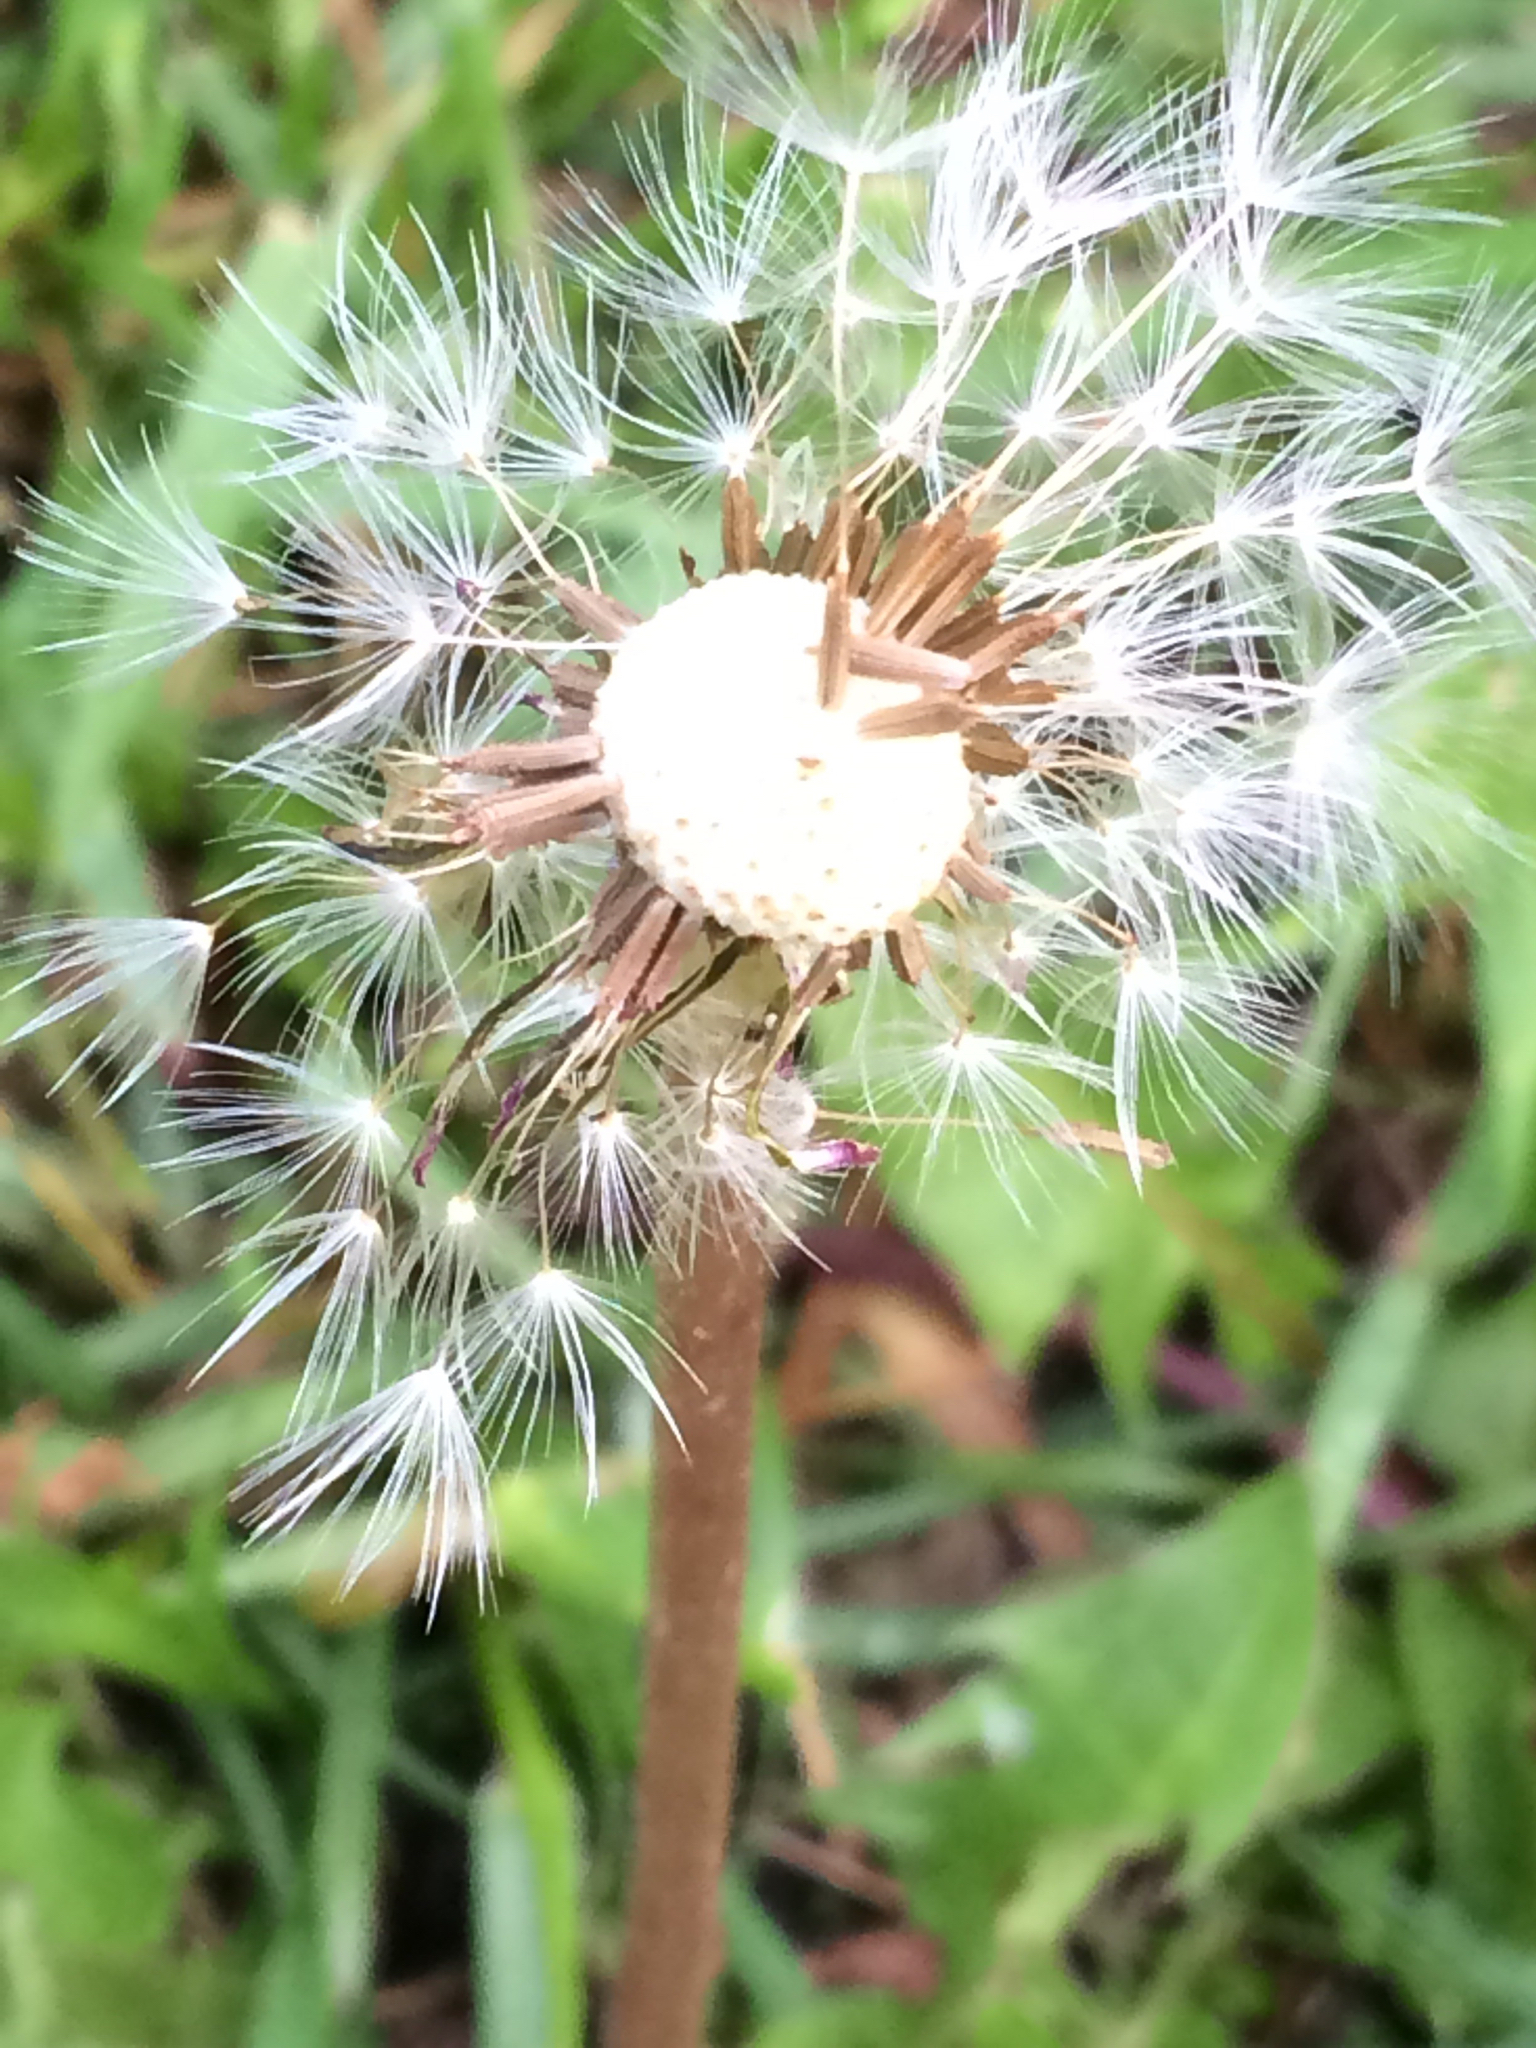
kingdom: Plantae
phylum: Tracheophyta
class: Magnoliopsida
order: Asterales
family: Asteraceae
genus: Taraxacum
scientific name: Taraxacum officinale
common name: Common dandelion
